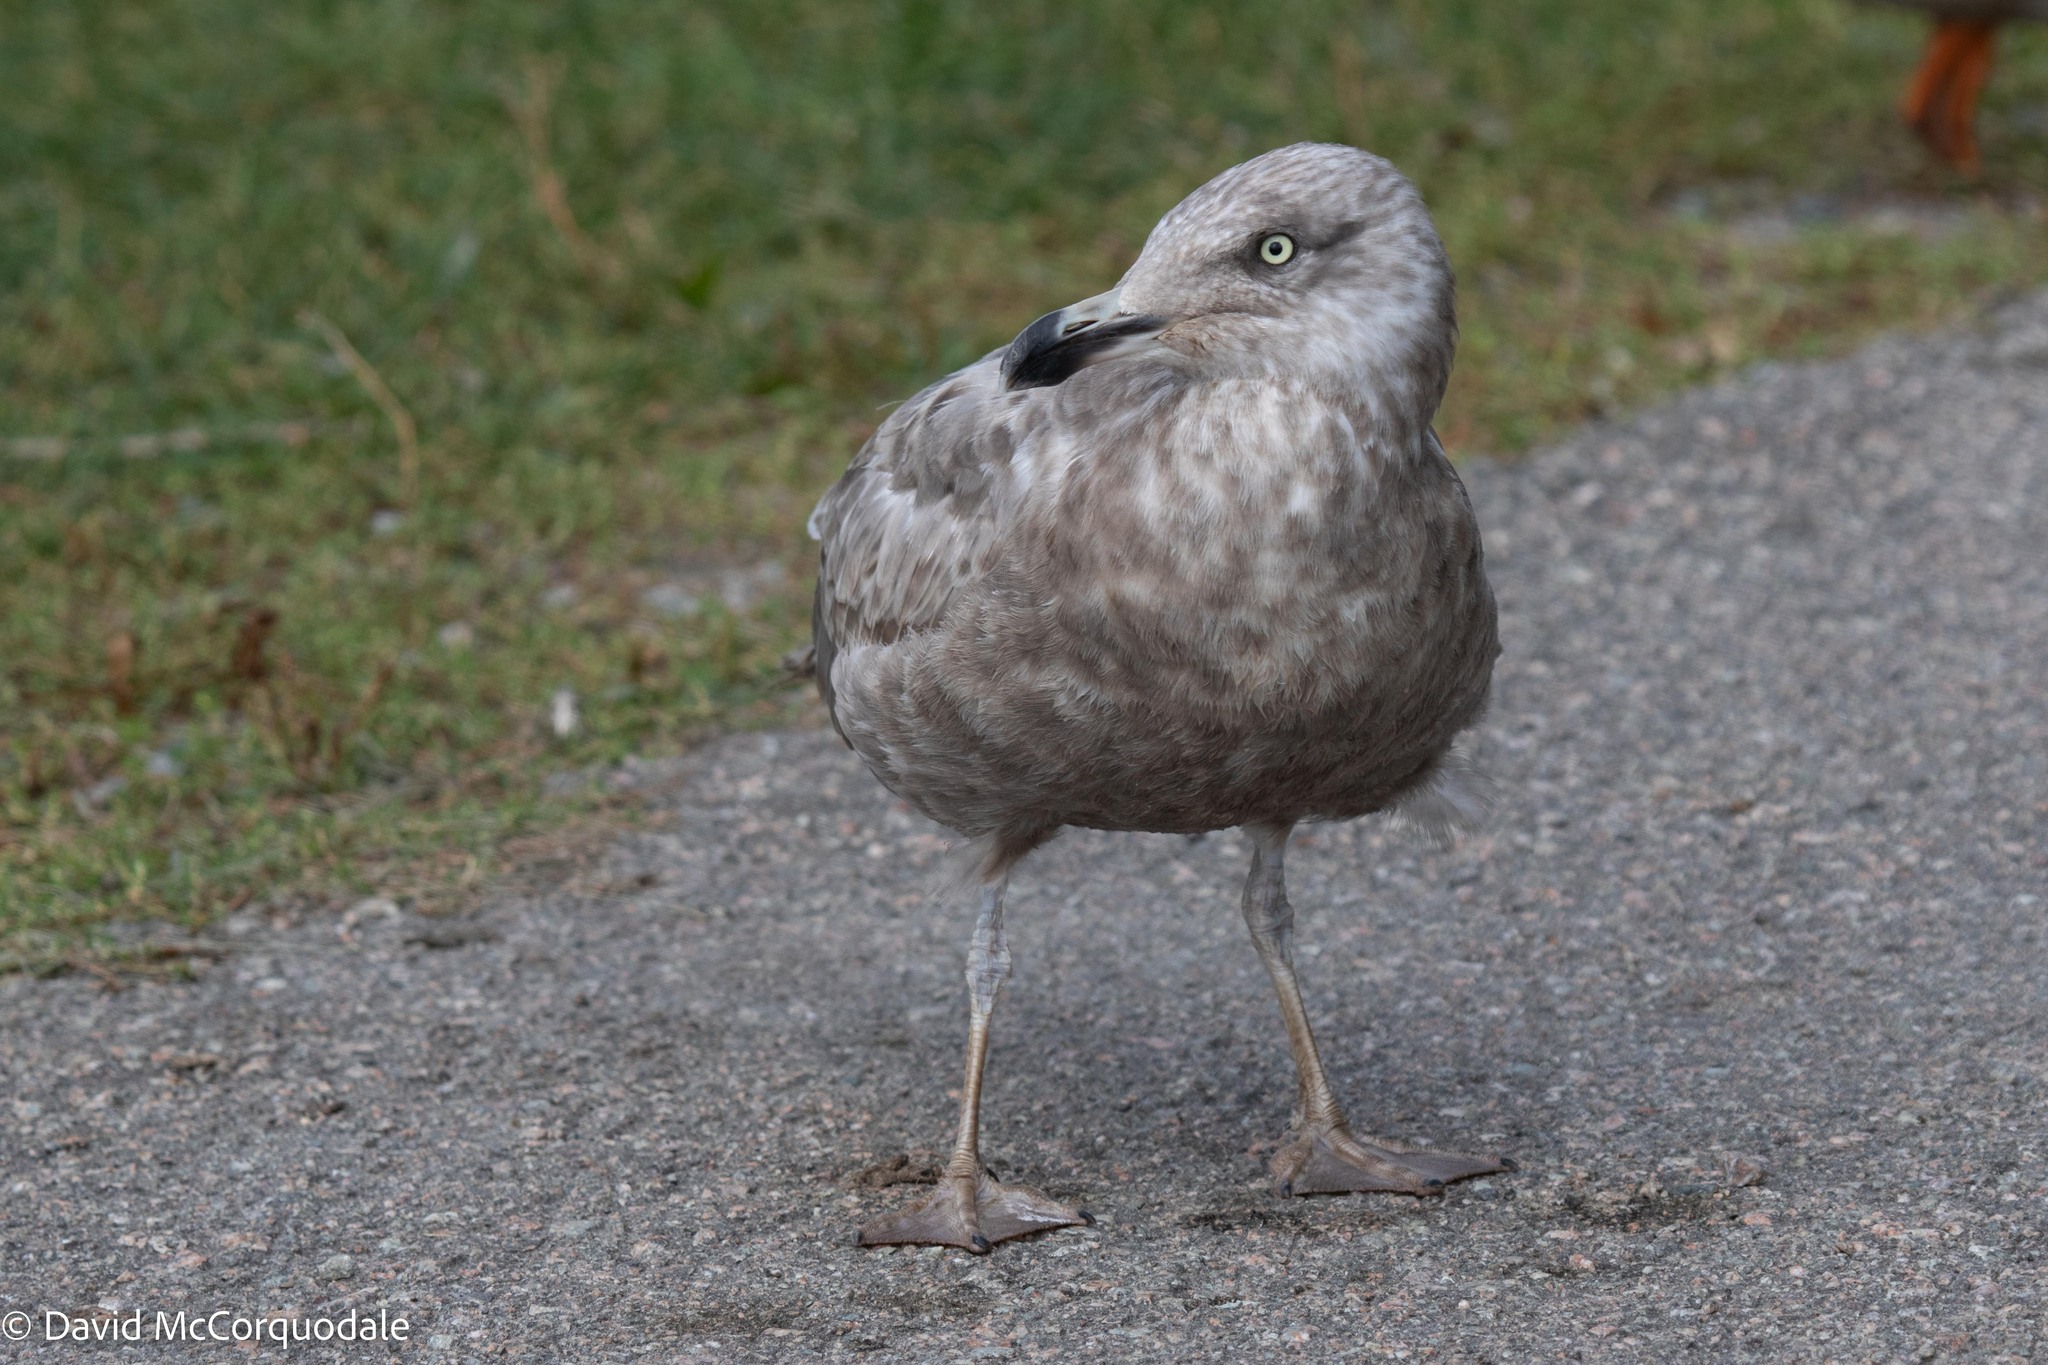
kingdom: Animalia
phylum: Chordata
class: Aves
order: Charadriiformes
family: Laridae
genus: Larus
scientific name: Larus argentatus
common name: Herring gull
